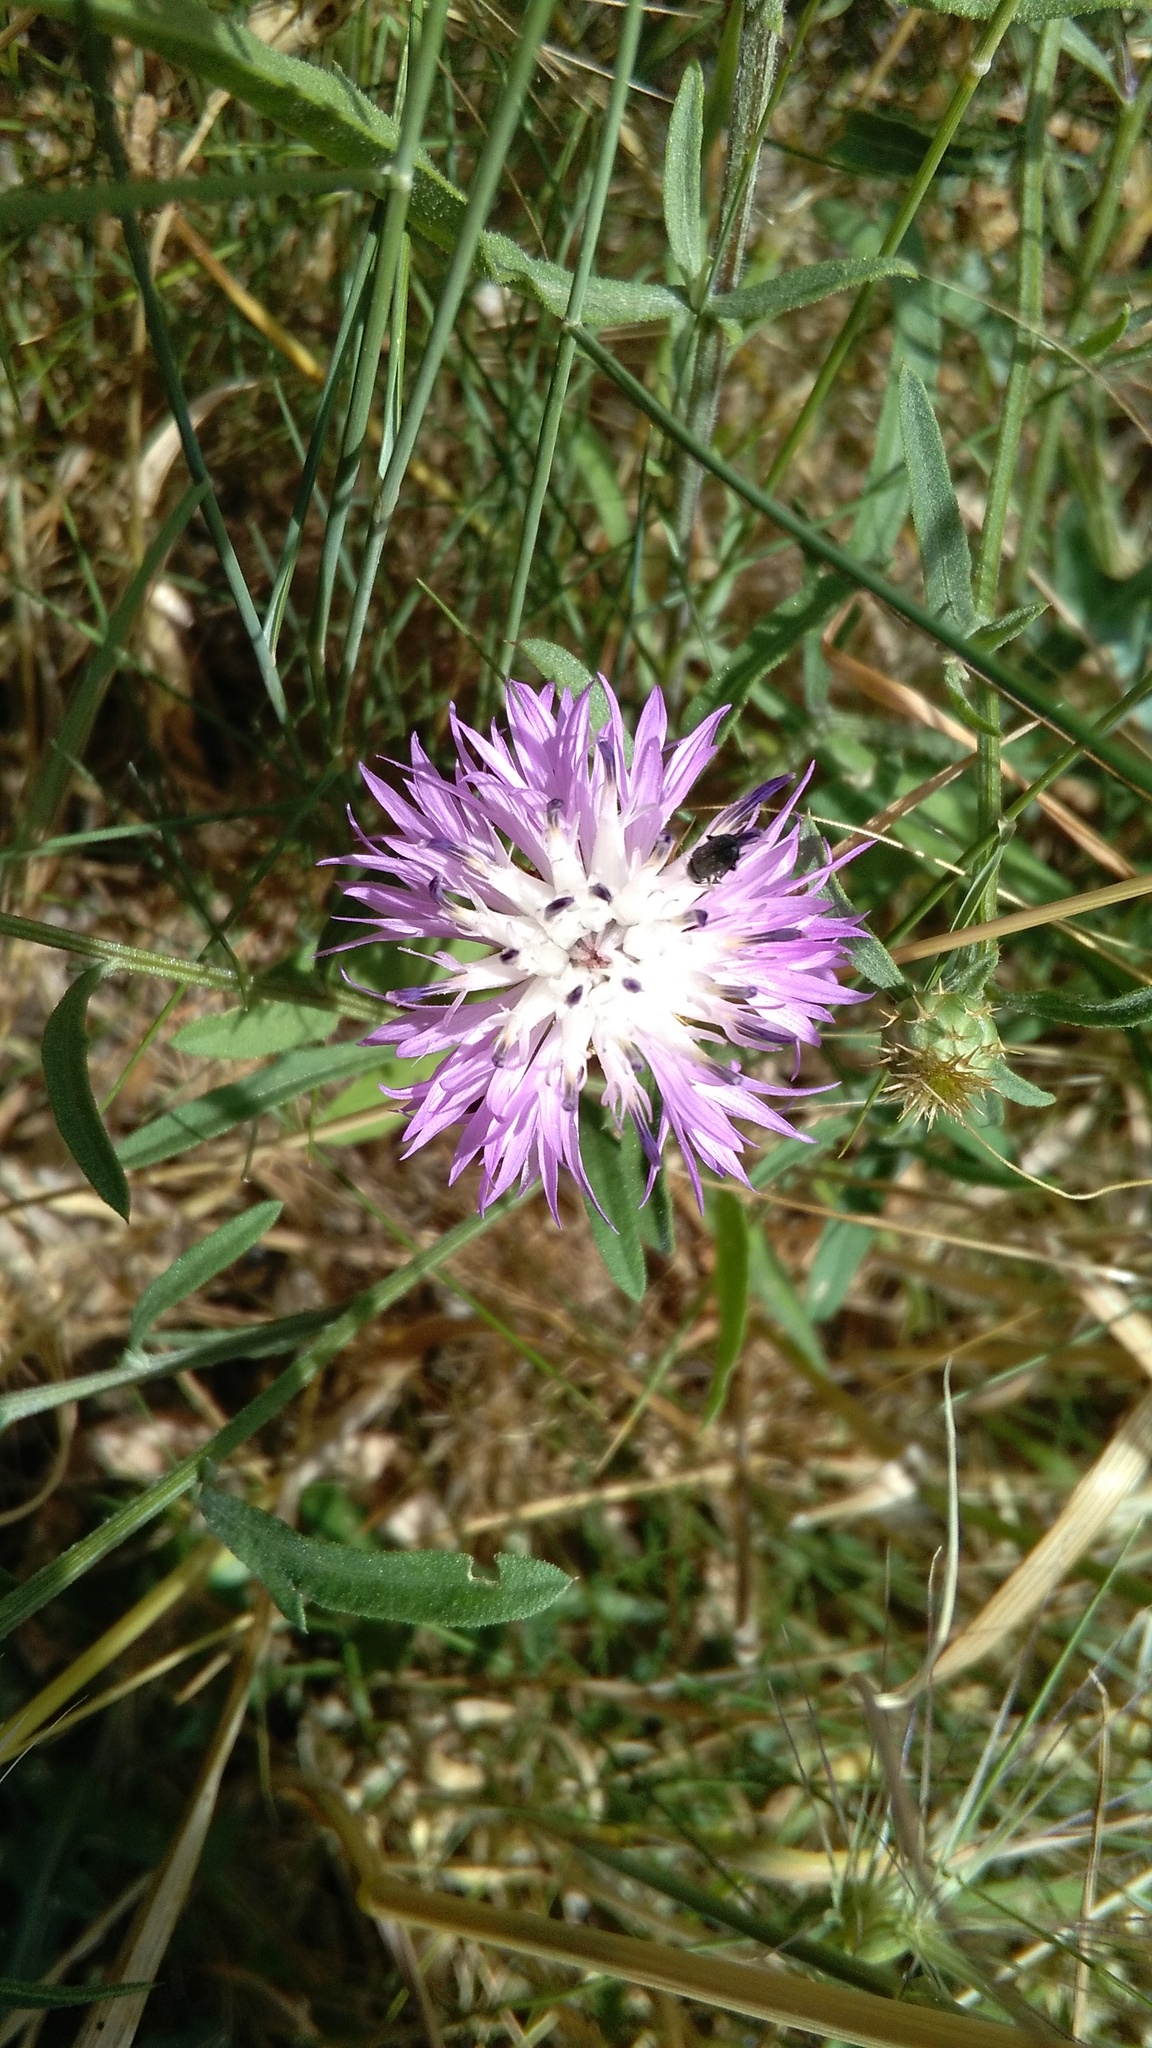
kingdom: Plantae
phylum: Tracheophyta
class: Magnoliopsida
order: Asterales
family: Asteraceae
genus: Centaurea
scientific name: Centaurea aspera
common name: Rough star-thistle
